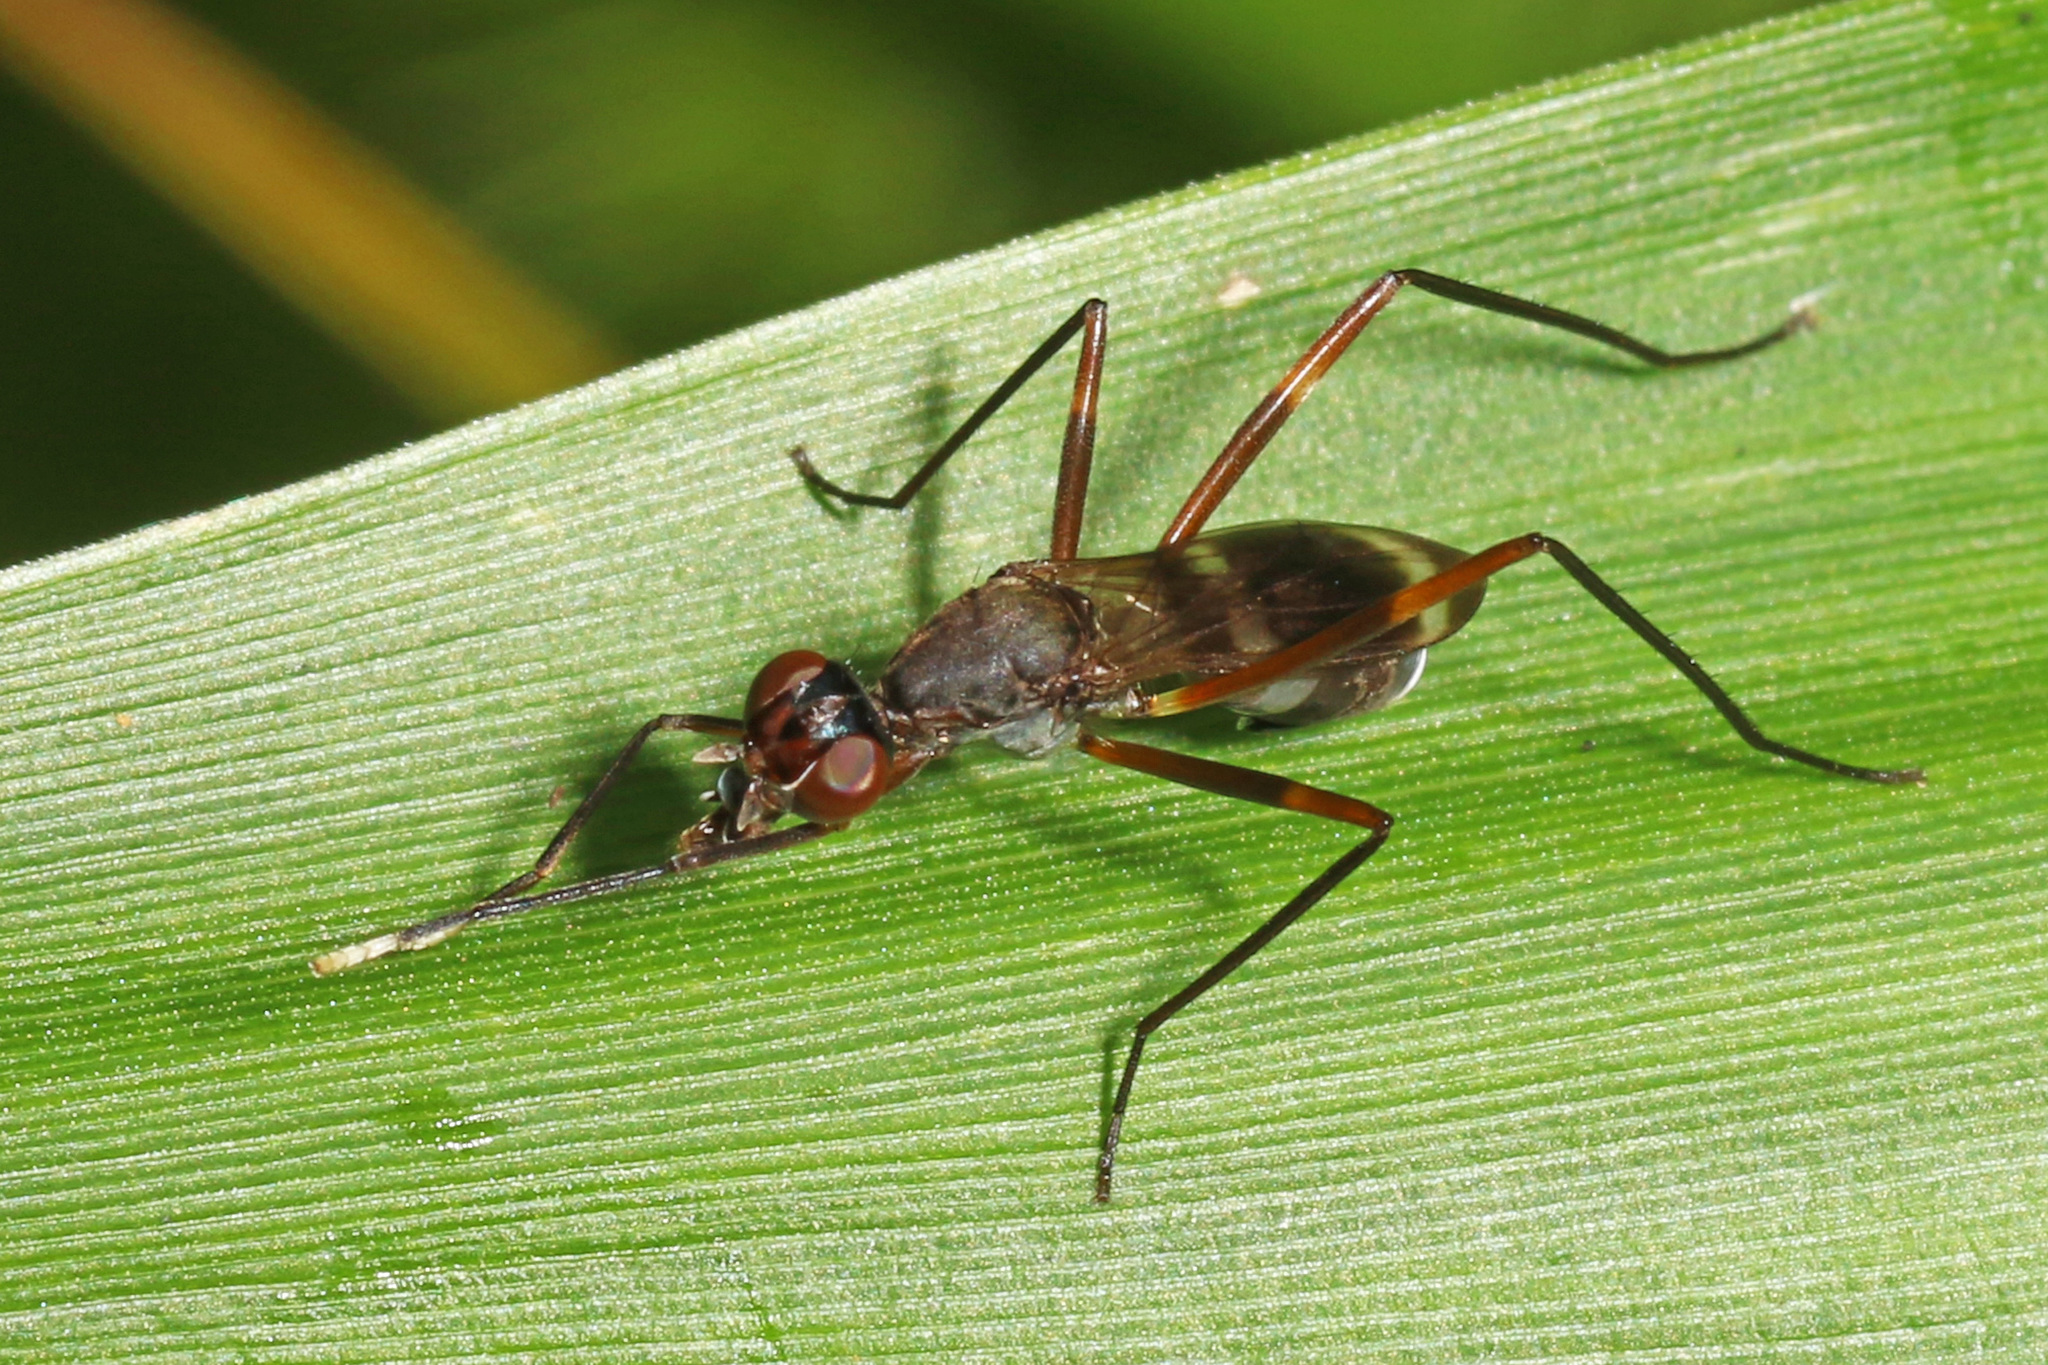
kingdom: Animalia
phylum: Arthropoda
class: Insecta
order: Diptera
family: Micropezidae
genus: Taeniaptera
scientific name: Taeniaptera trivittata
